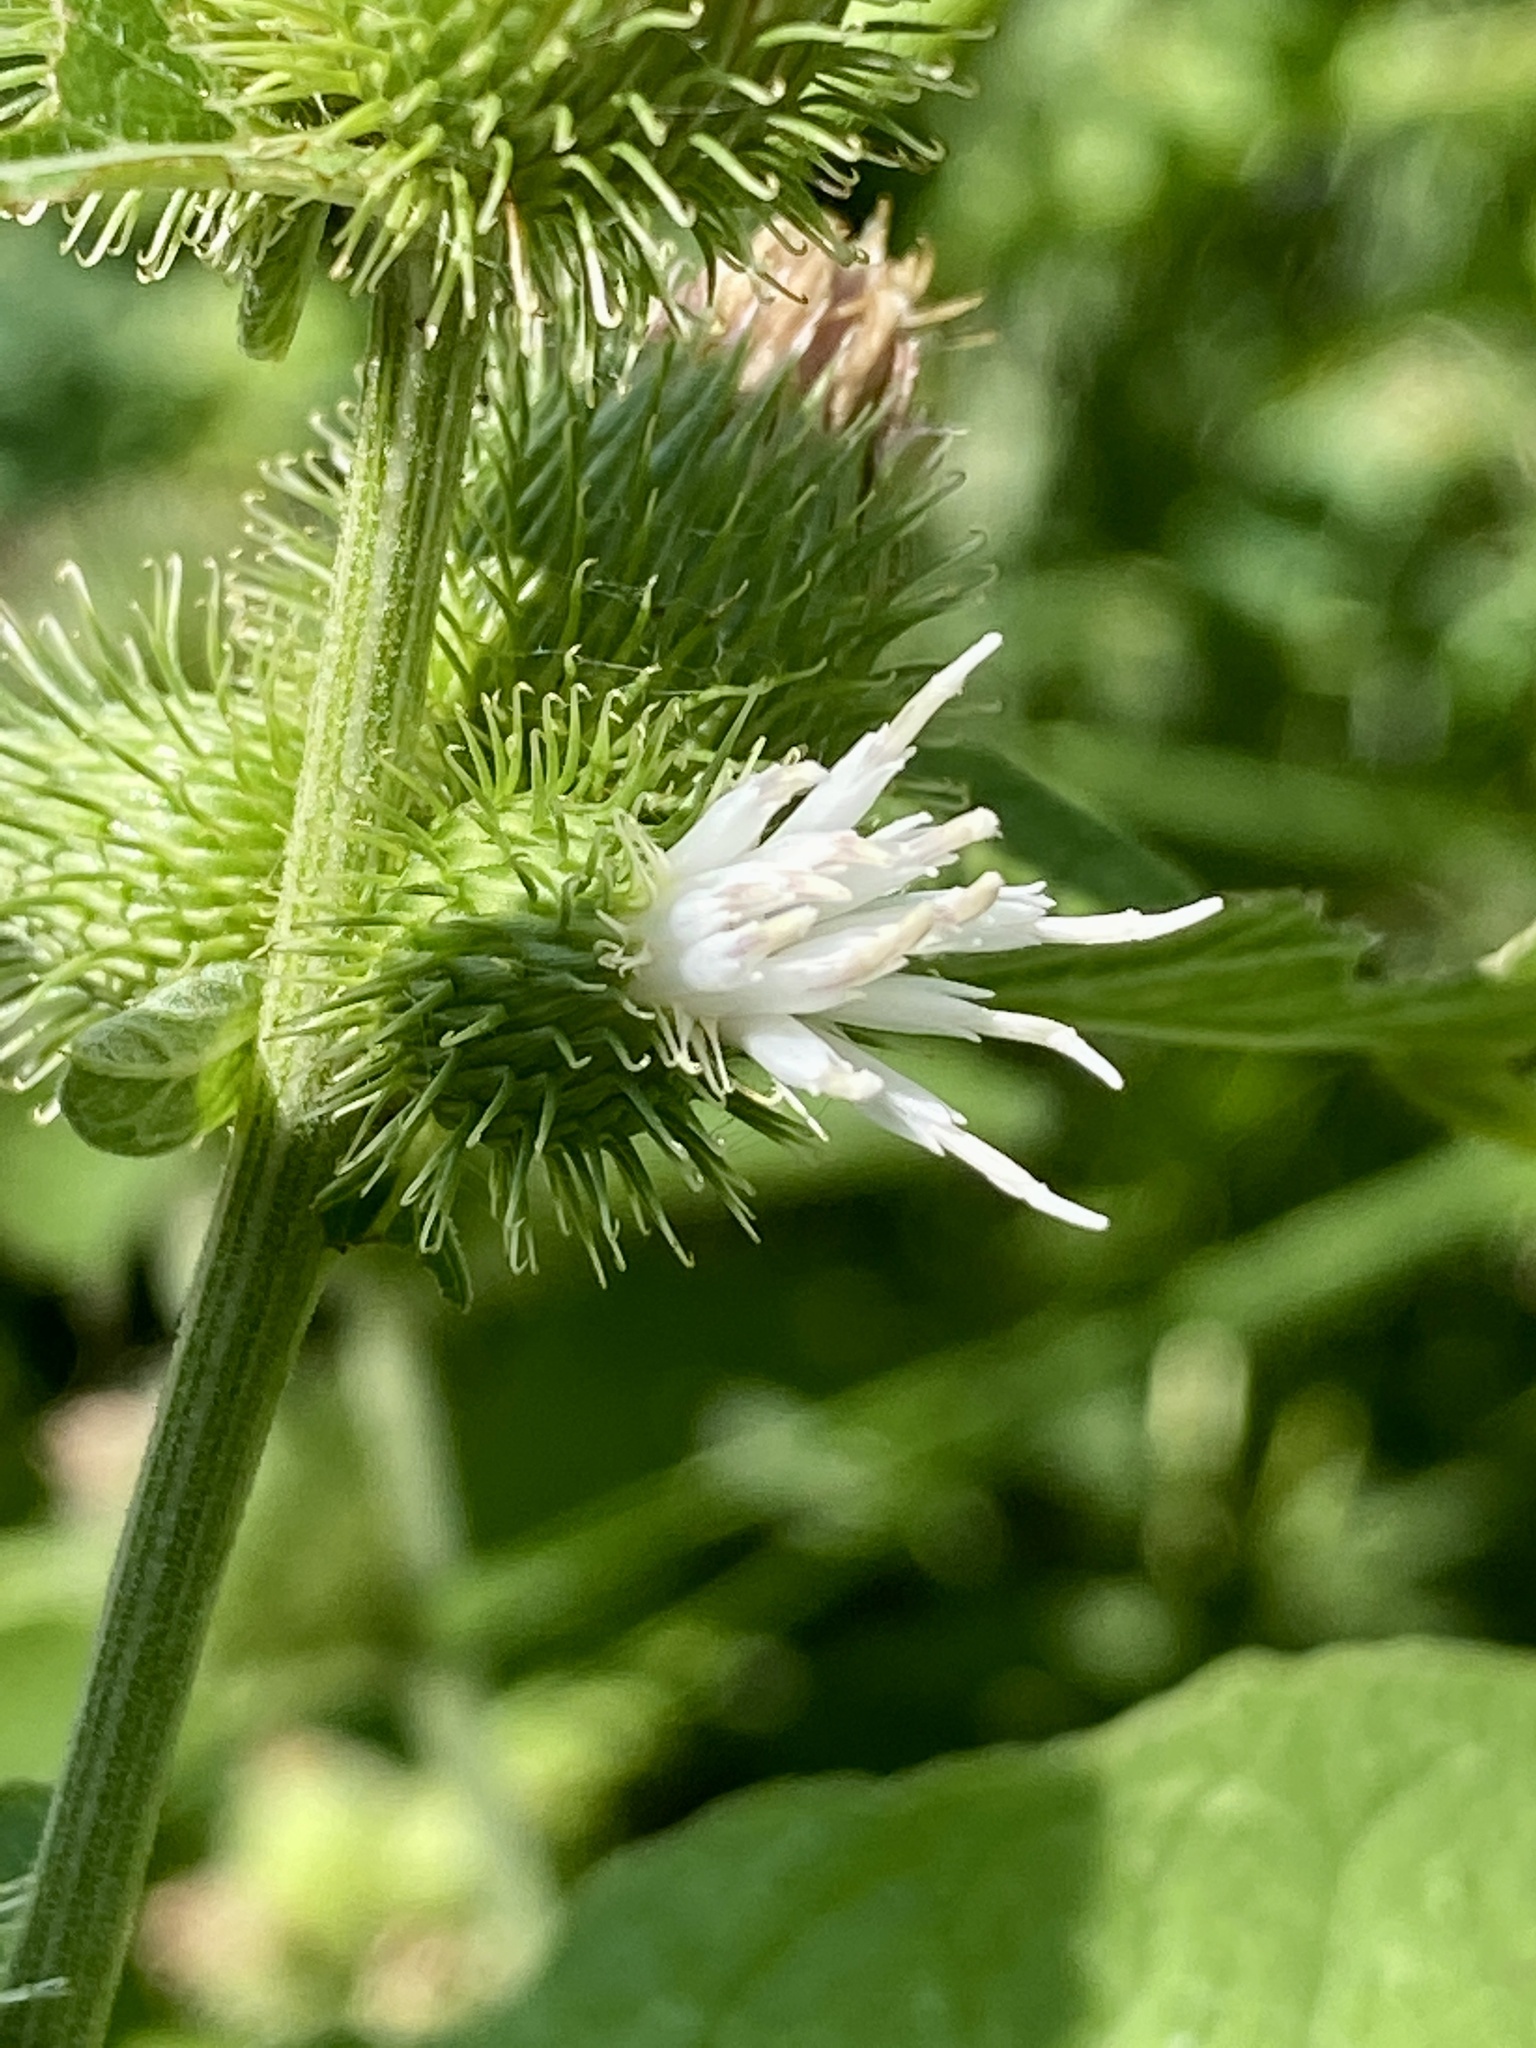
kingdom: Plantae
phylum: Tracheophyta
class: Magnoliopsida
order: Asterales
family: Asteraceae
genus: Arctium
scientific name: Arctium minus
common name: Lesser burdock
